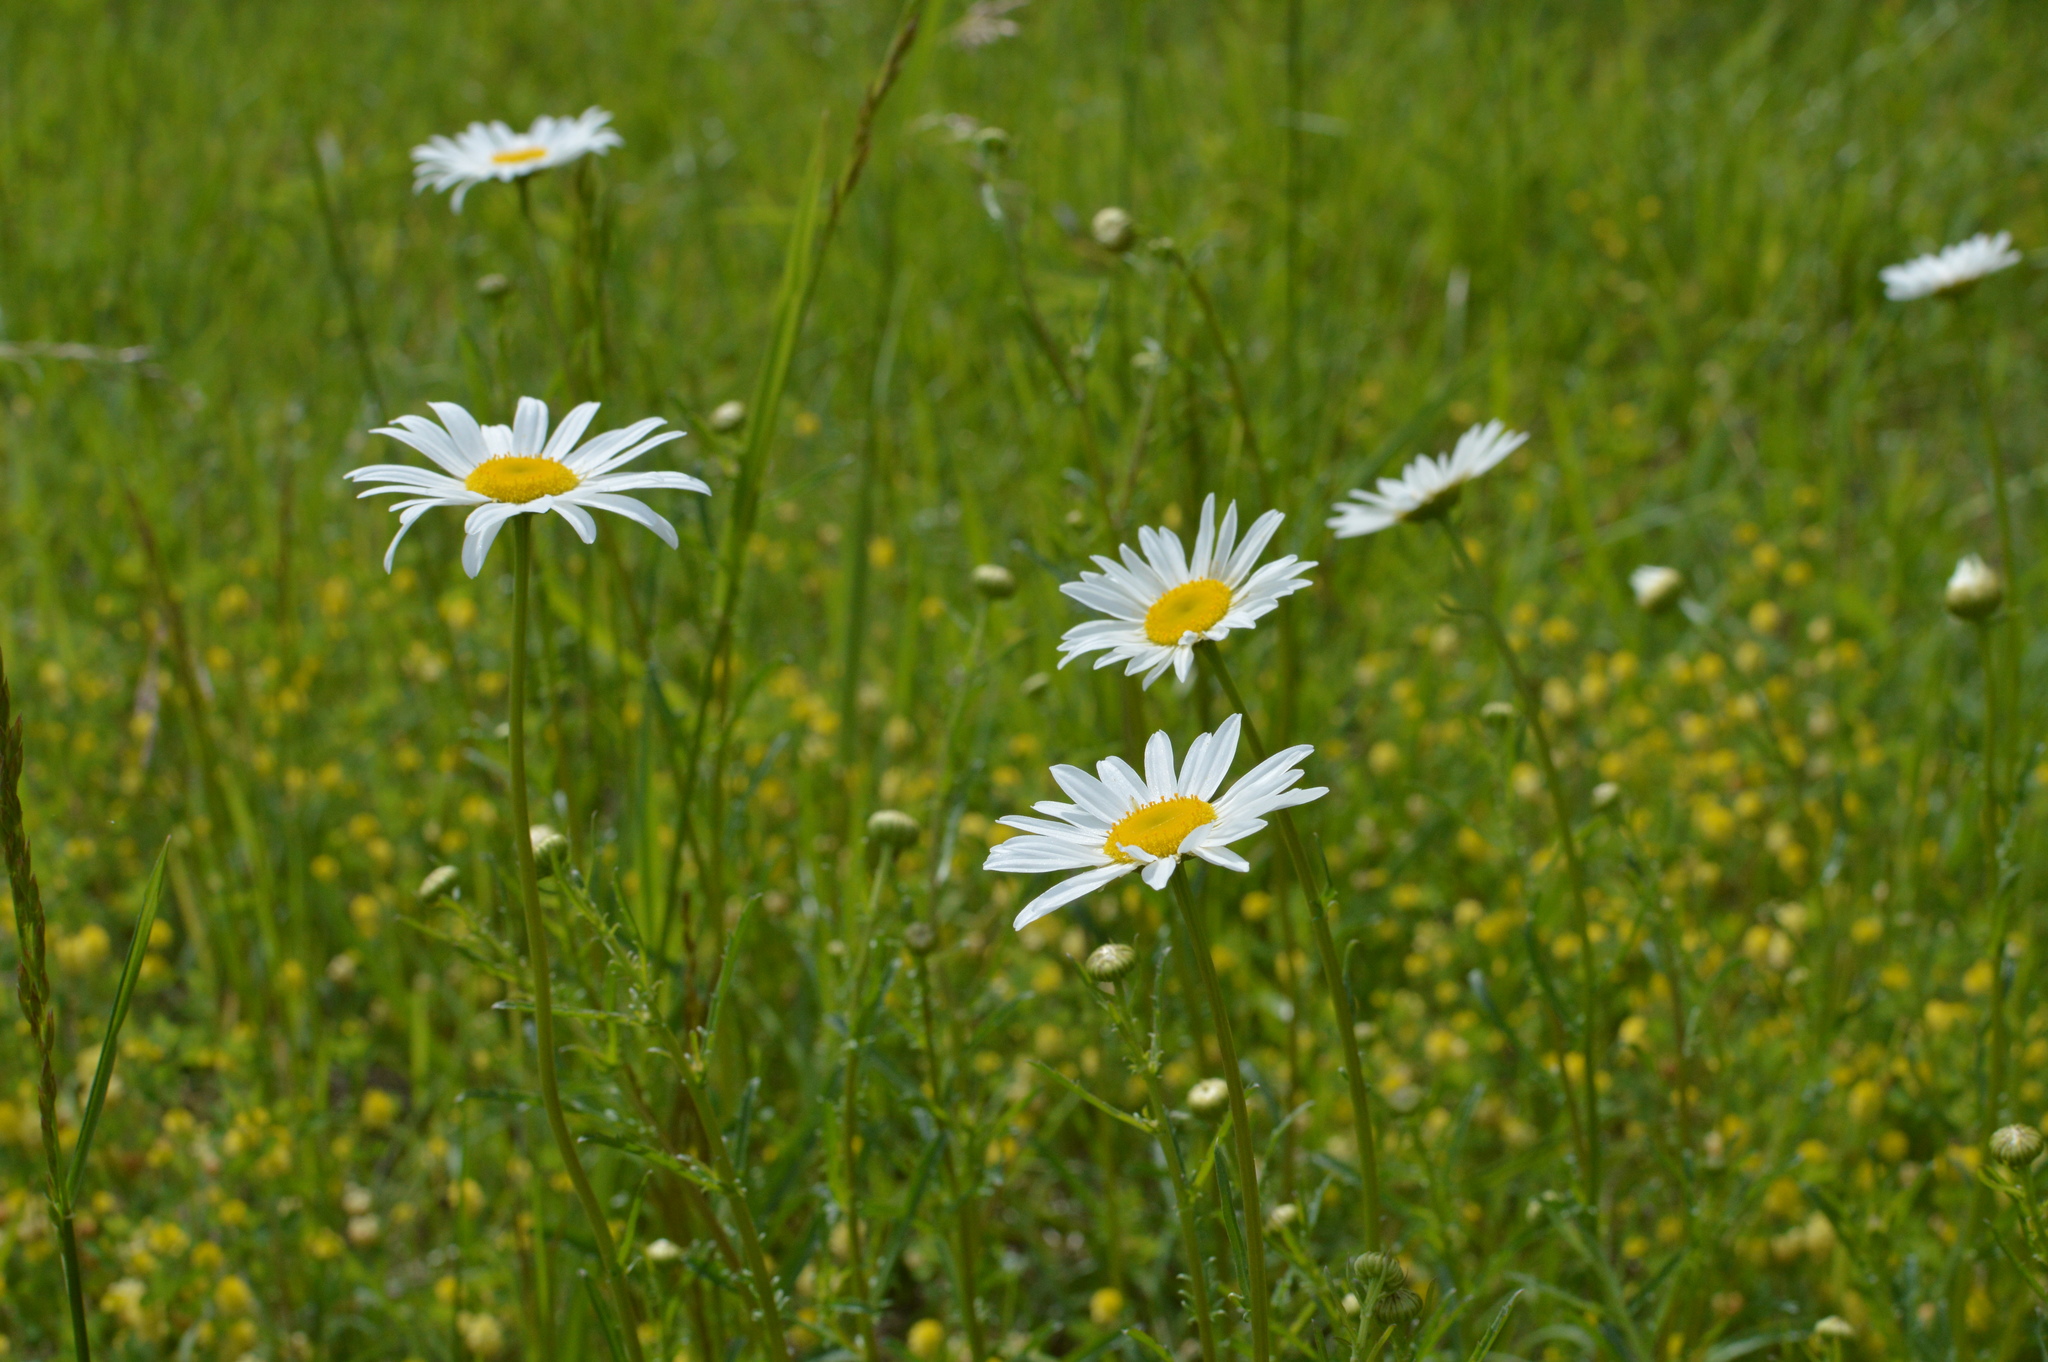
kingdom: Plantae
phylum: Tracheophyta
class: Magnoliopsida
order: Asterales
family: Asteraceae
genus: Leucanthemum
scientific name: Leucanthemum vulgare
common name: Oxeye daisy
